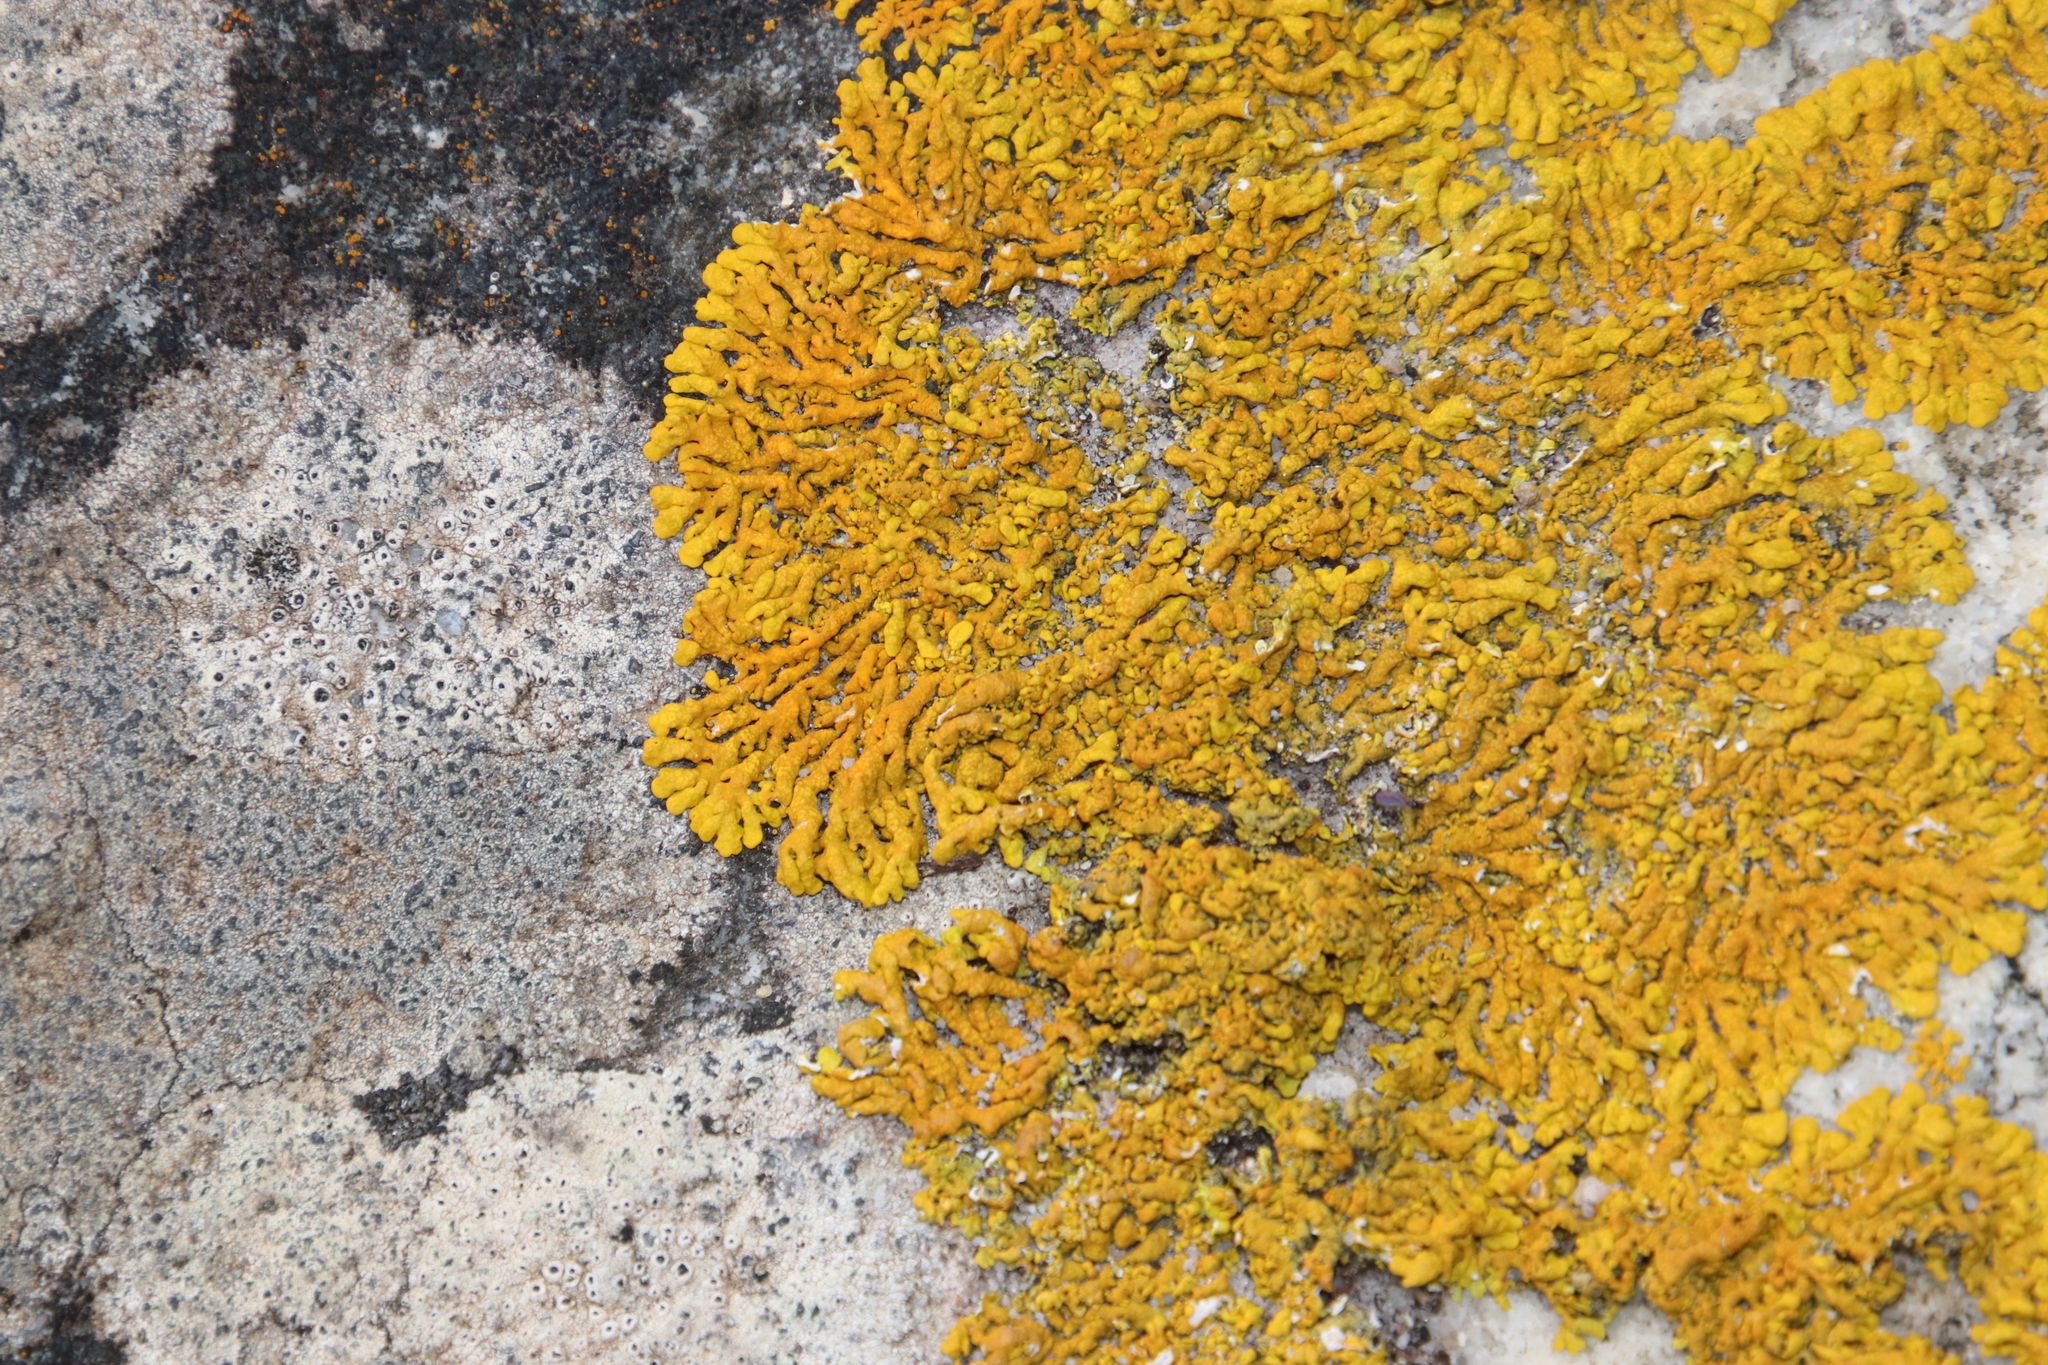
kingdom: Fungi
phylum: Ascomycota
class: Lecanoromycetes
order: Teloschistales
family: Teloschistaceae
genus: Dufourea
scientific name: Dufourea capensis
